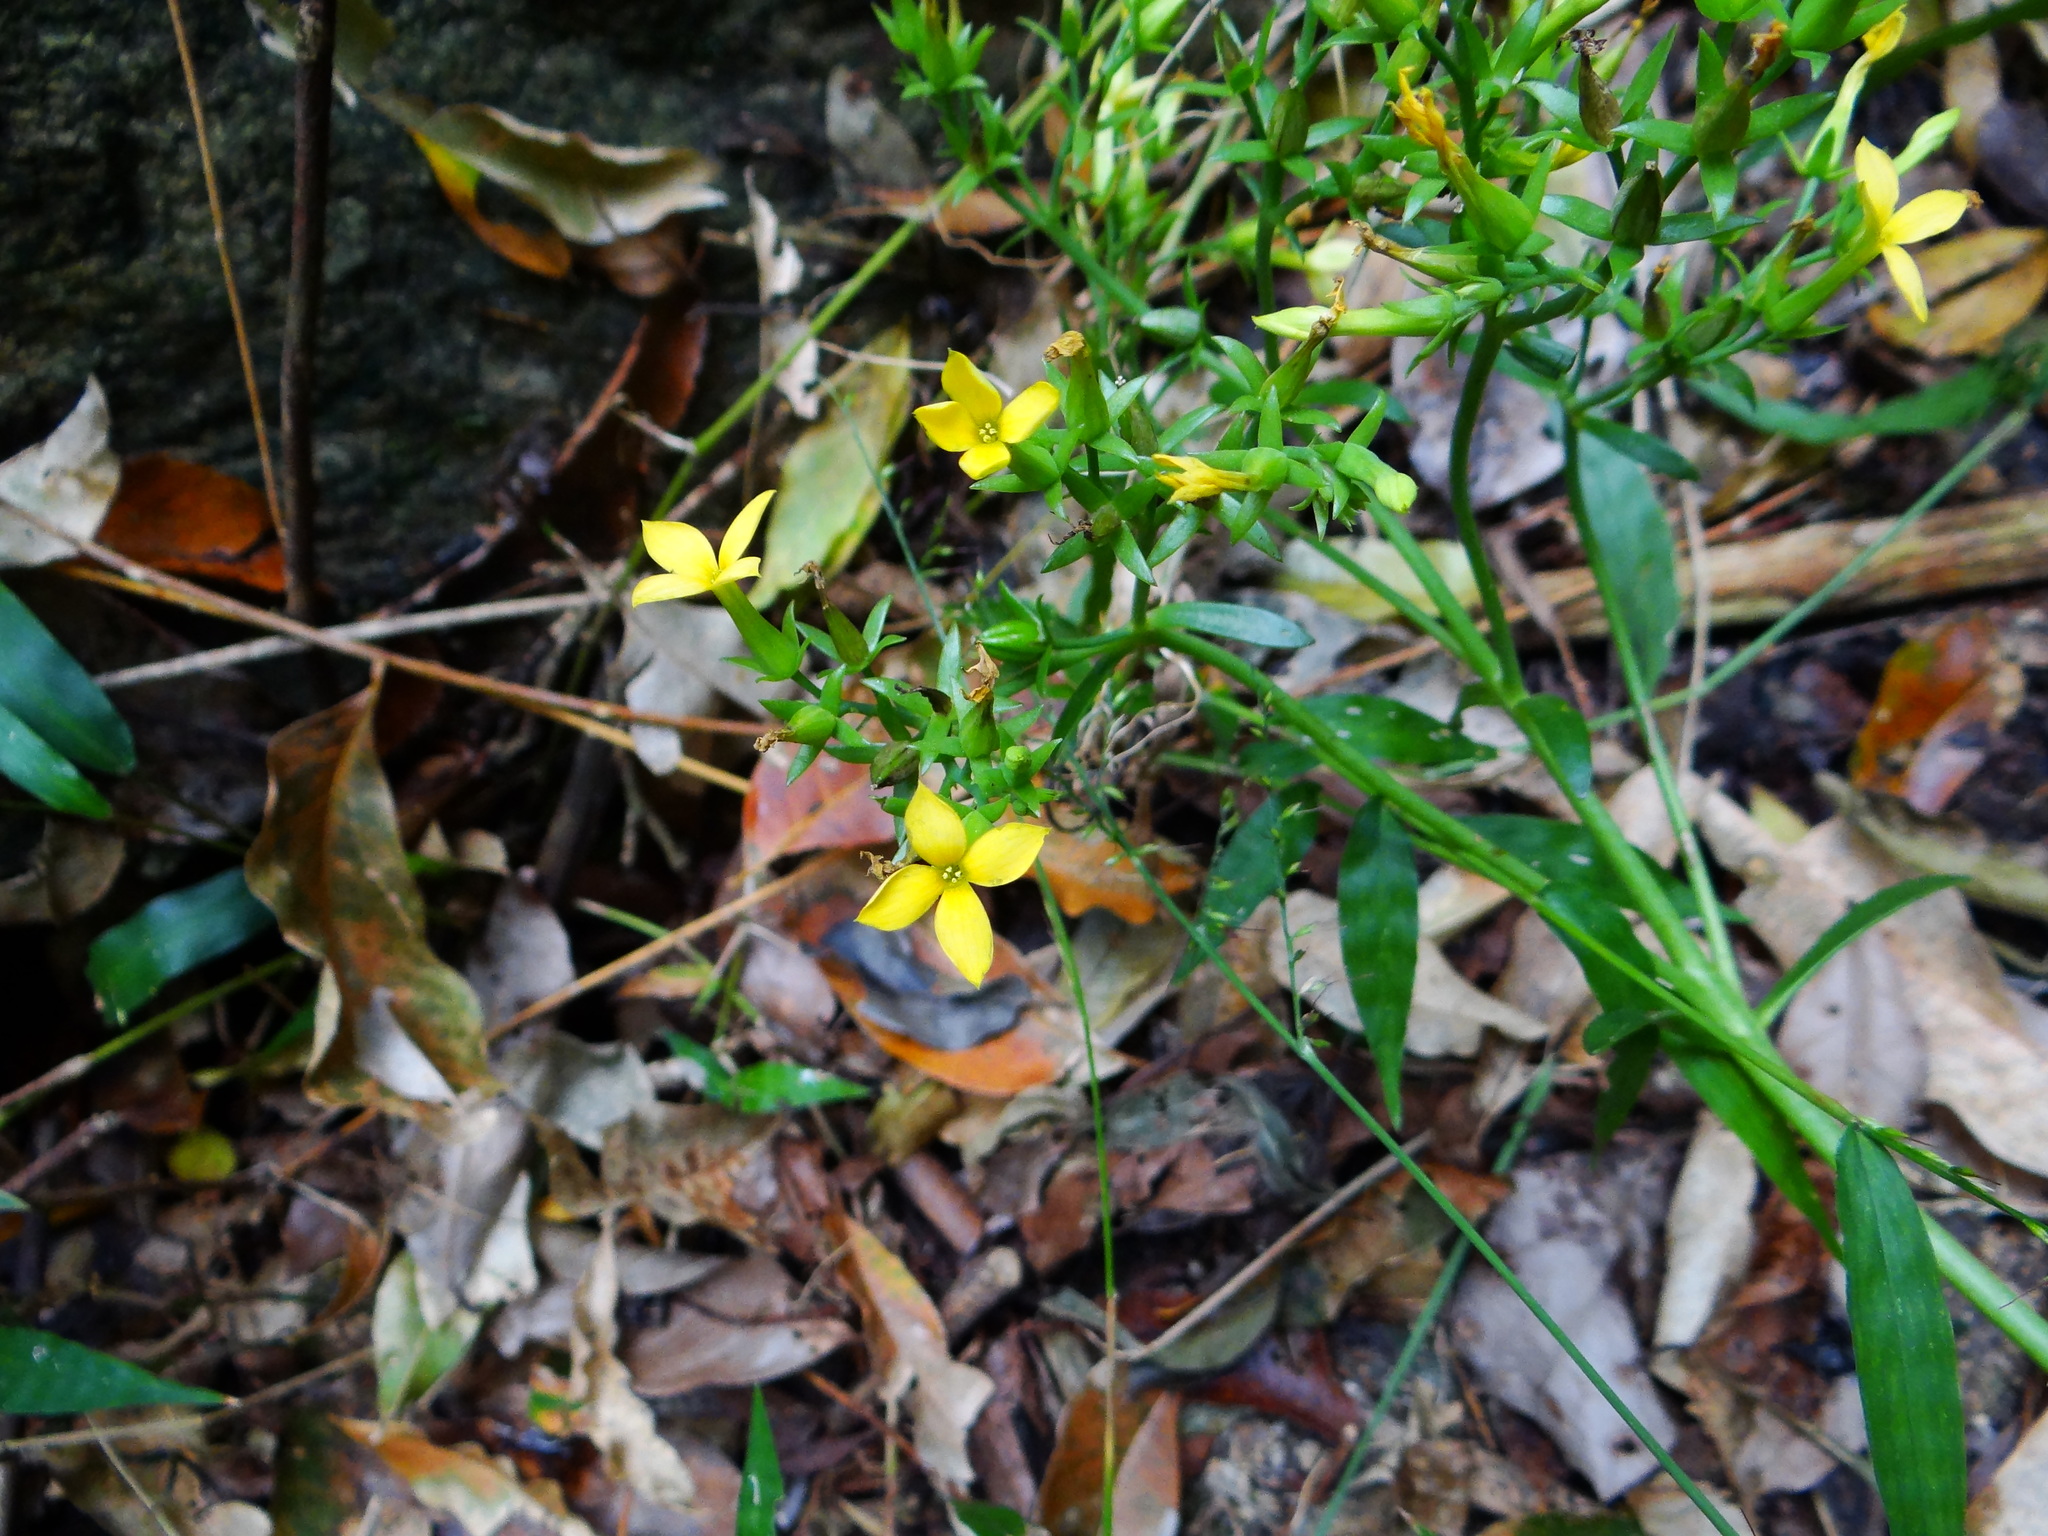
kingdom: Plantae
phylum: Tracheophyta
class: Magnoliopsida
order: Saxifragales
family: Crassulaceae
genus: Kalanchoe
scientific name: Kalanchoe integra
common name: Neverdie
